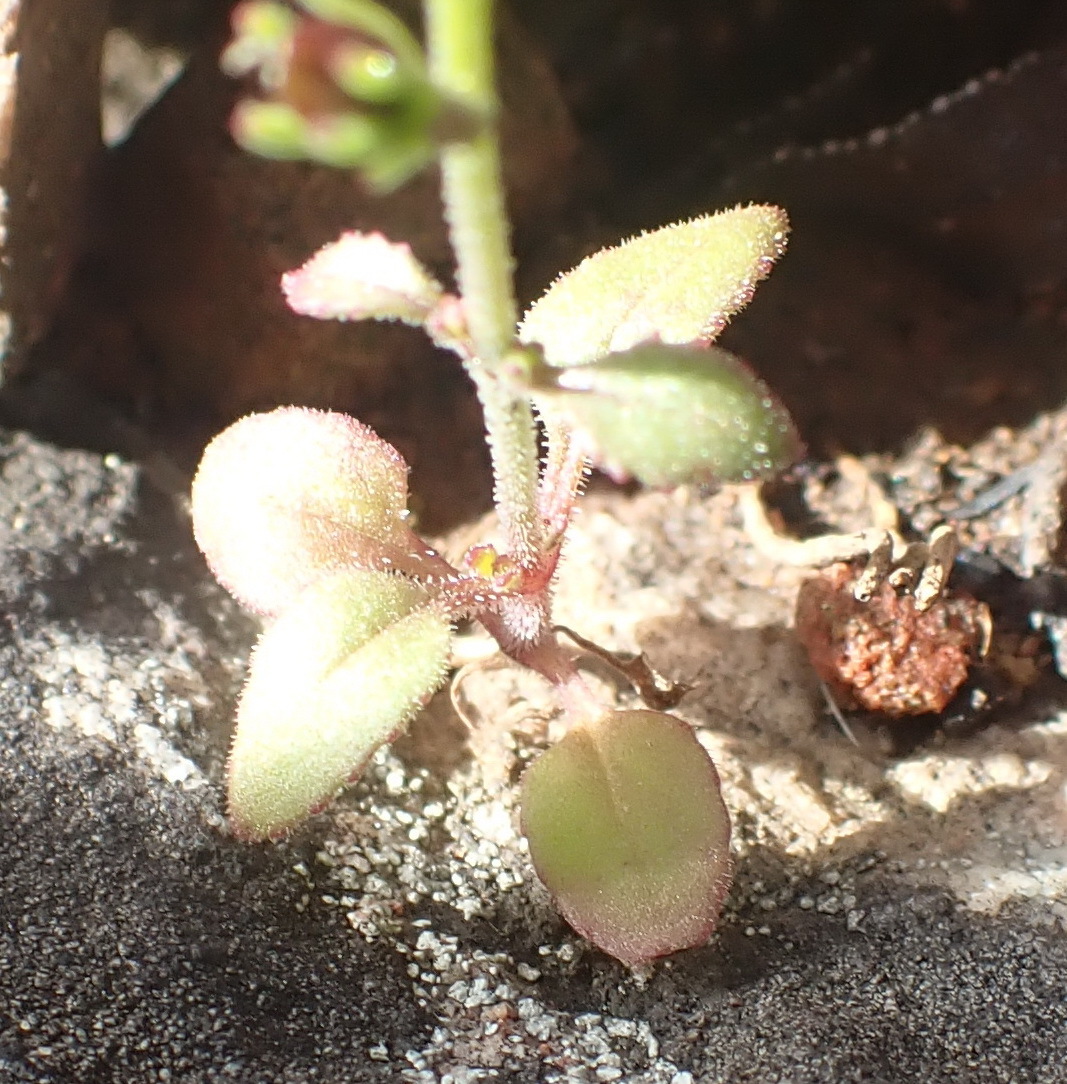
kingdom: Plantae
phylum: Tracheophyta
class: Magnoliopsida
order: Lamiales
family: Scrophulariaceae
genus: Manulea
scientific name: Manulea cheiranthus
